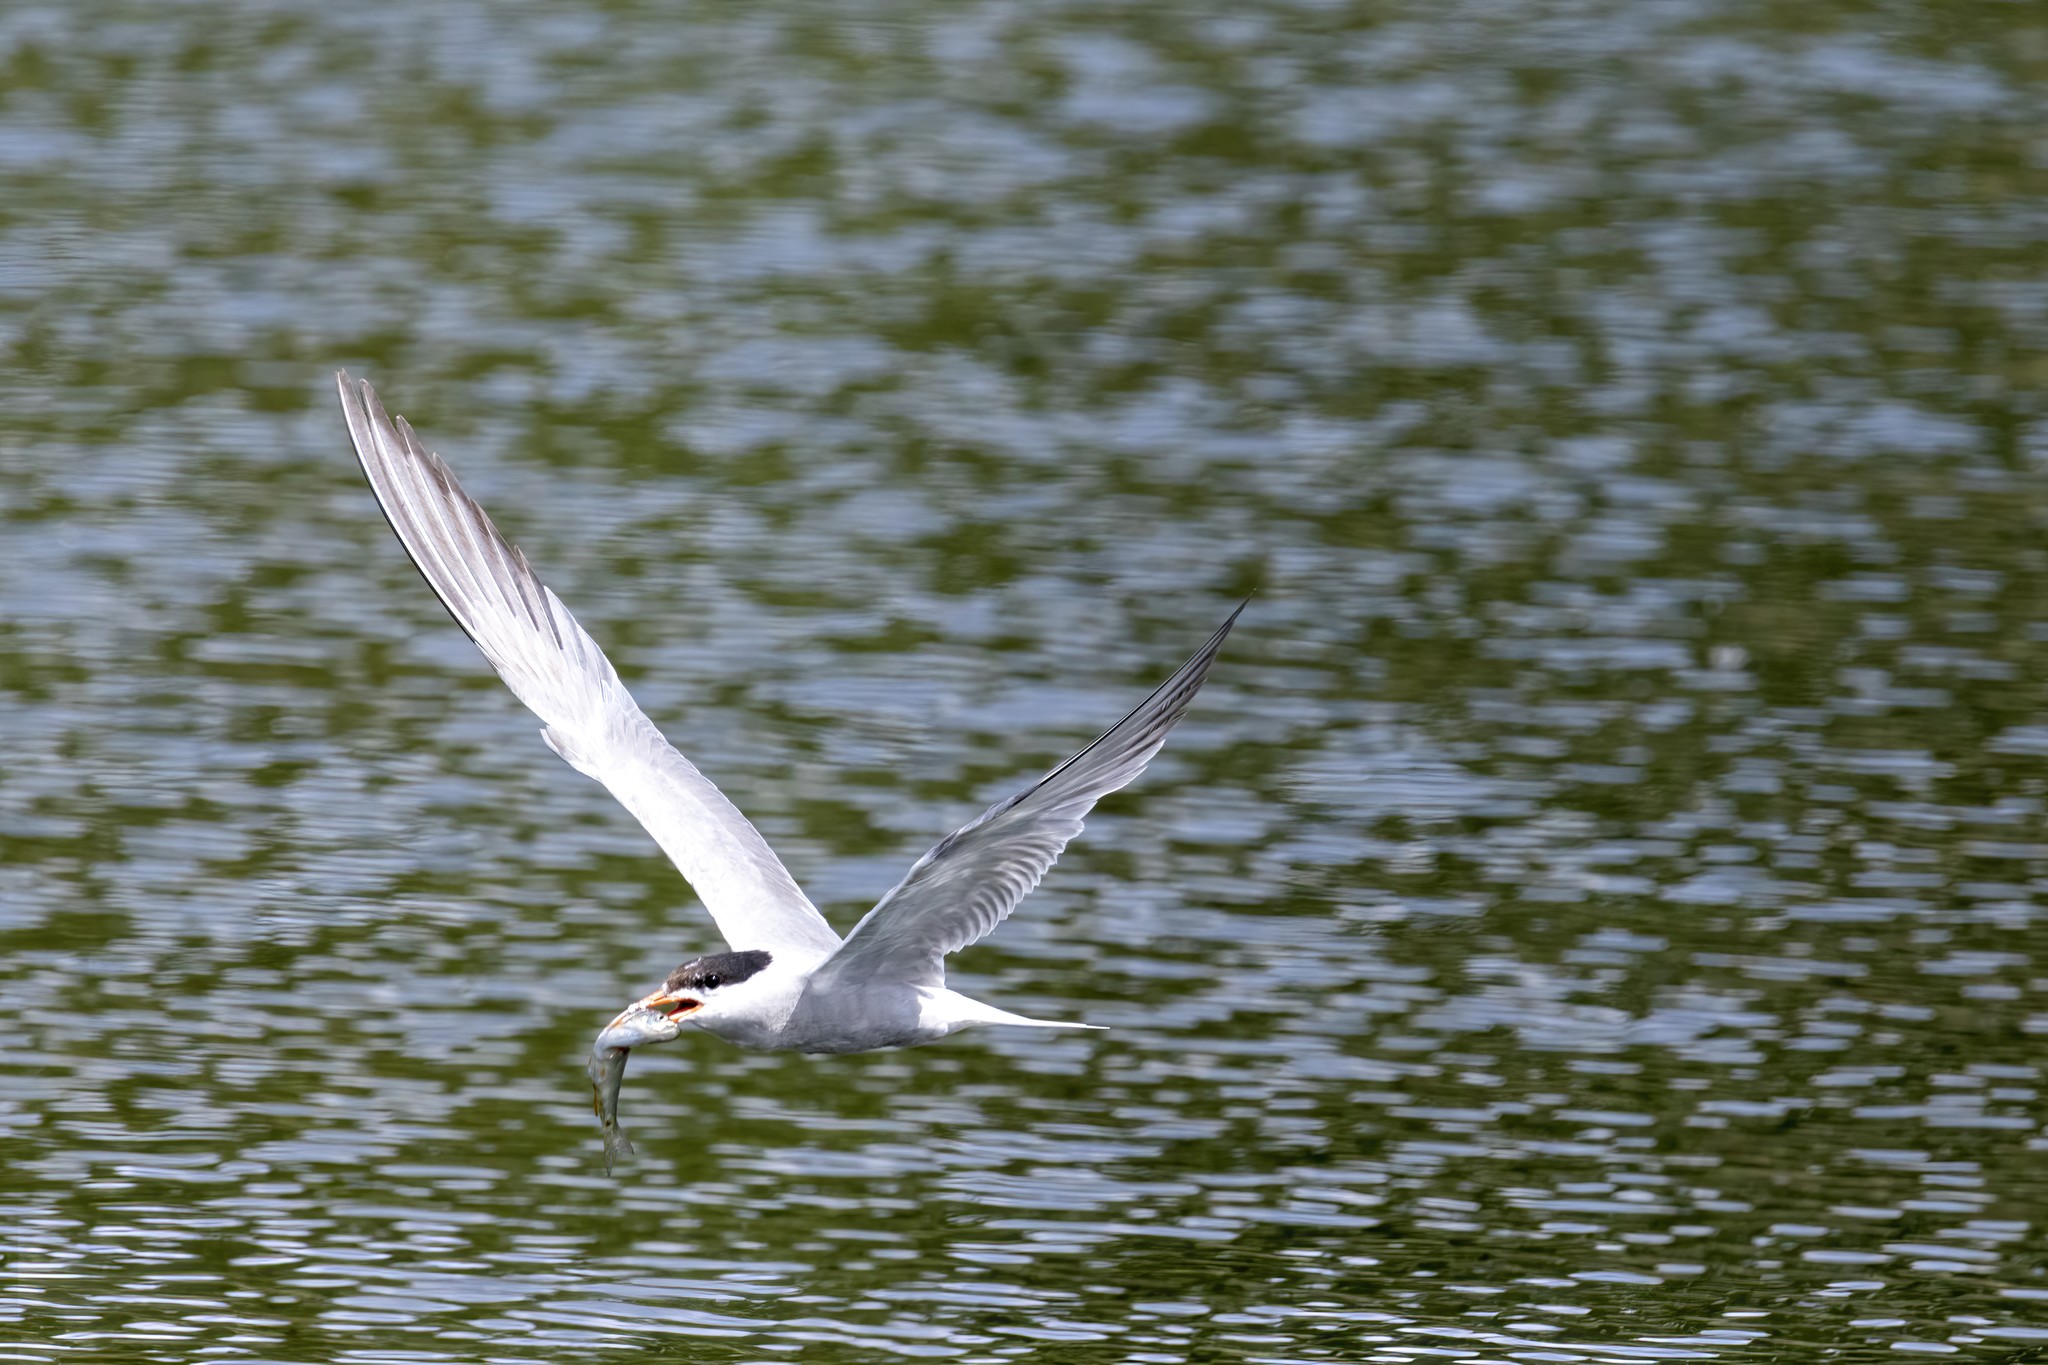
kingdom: Animalia
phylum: Chordata
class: Aves
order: Charadriiformes
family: Laridae
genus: Sterna
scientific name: Sterna hirundo
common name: Common tern
